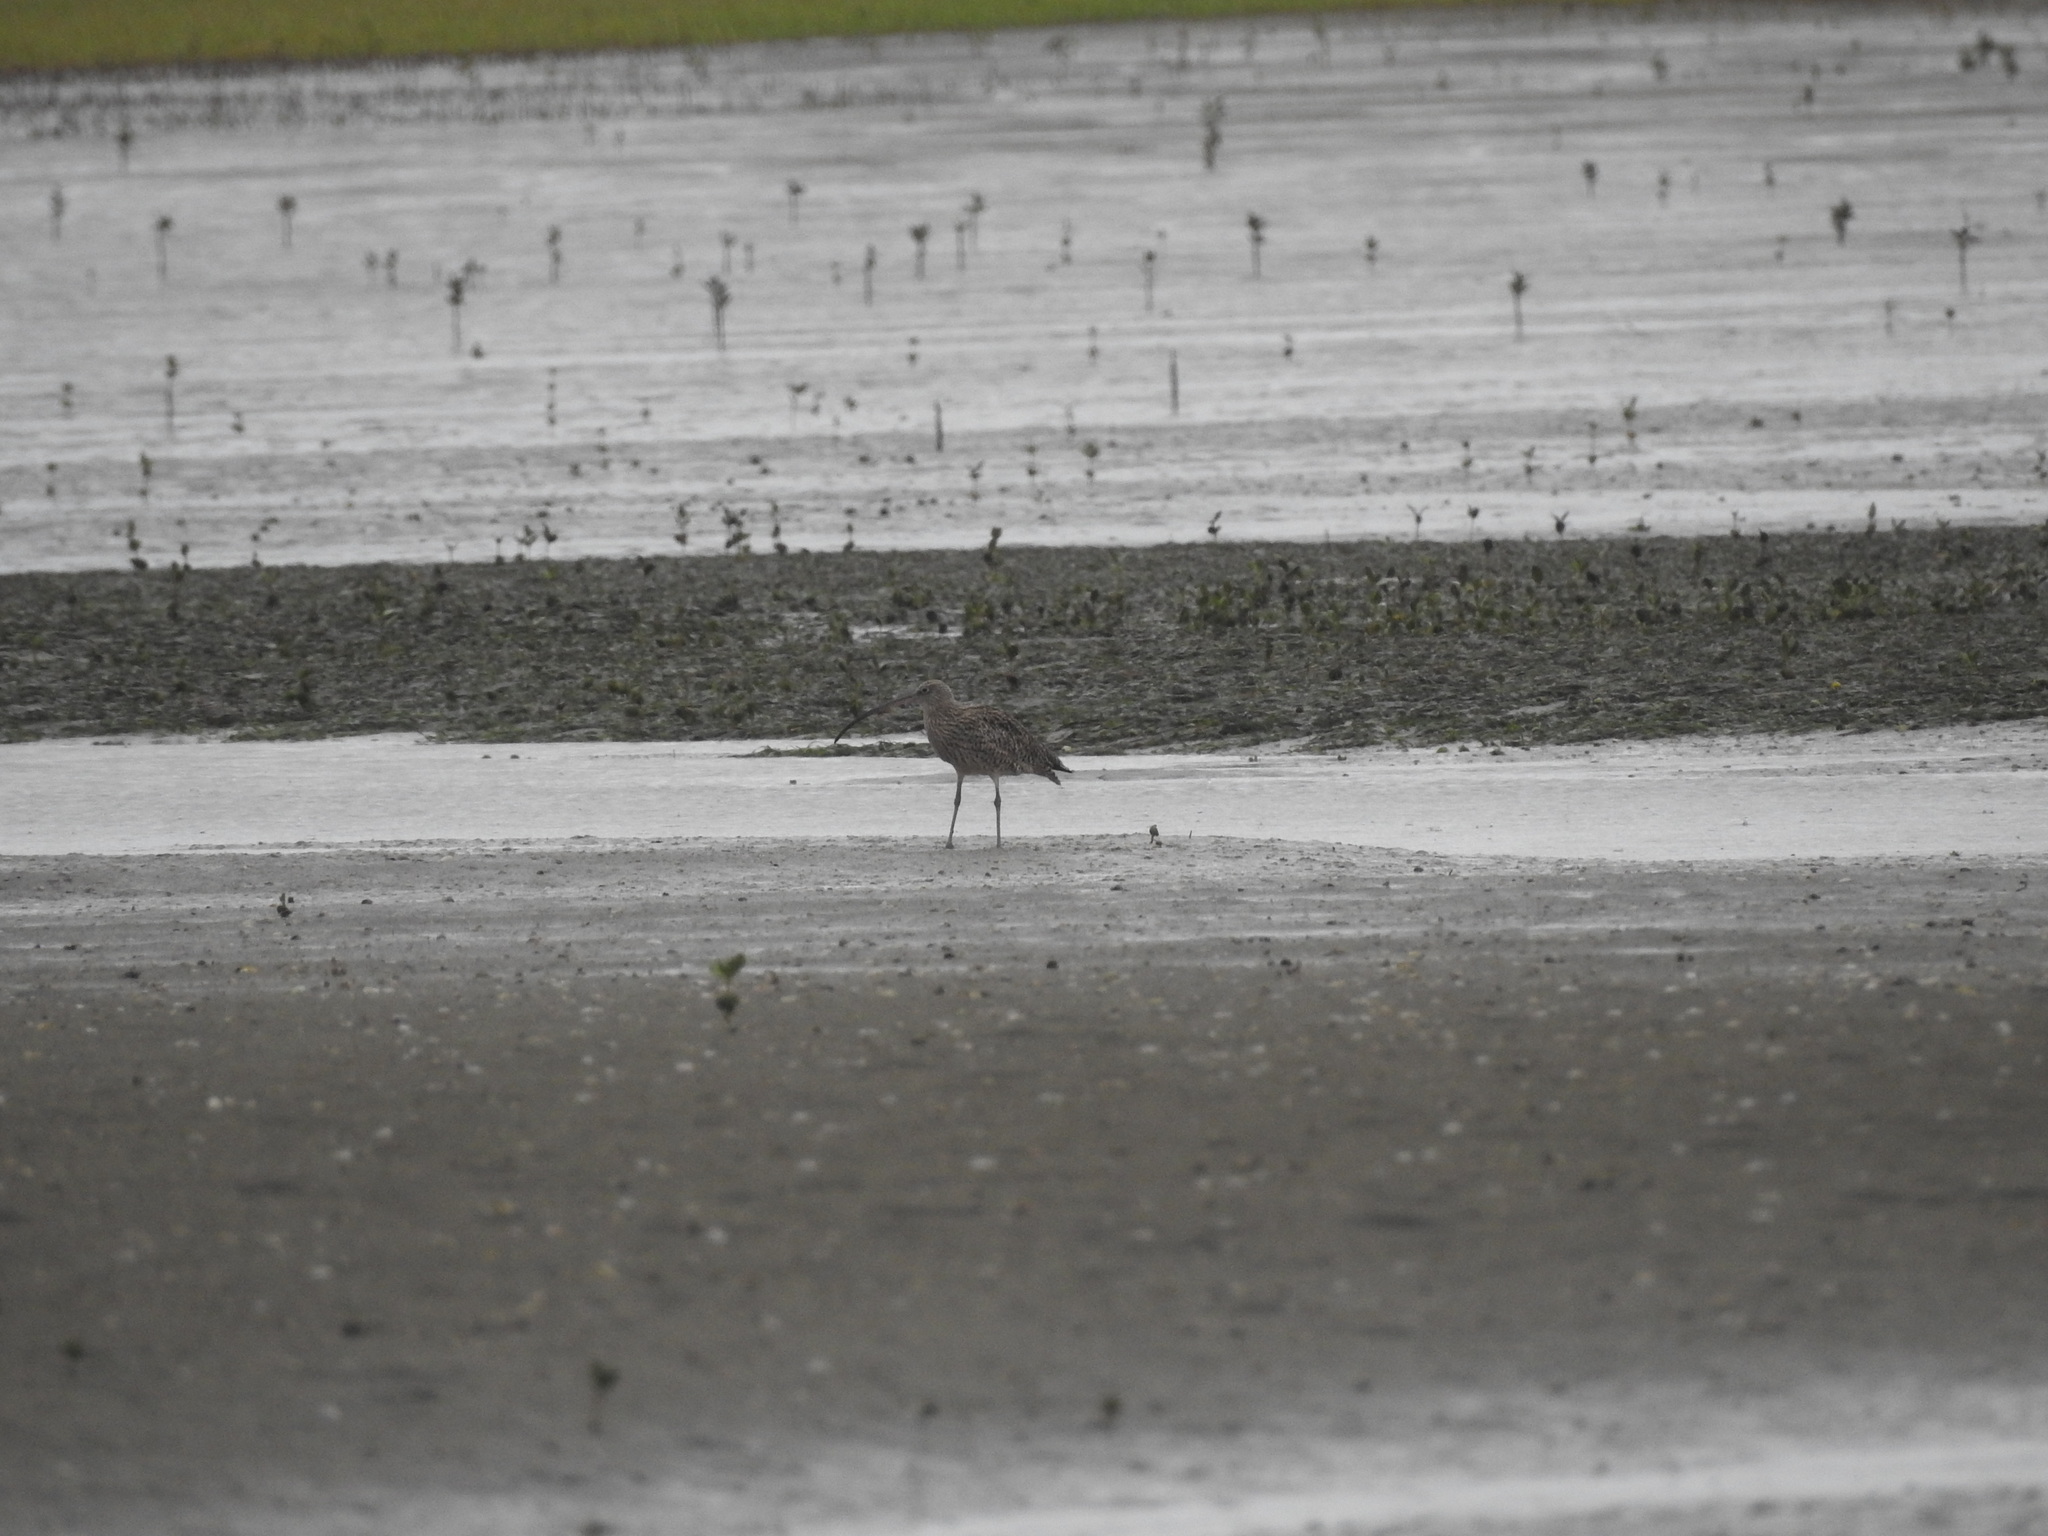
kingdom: Animalia
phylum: Chordata
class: Aves
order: Charadriiformes
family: Scolopacidae
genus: Numenius
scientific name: Numenius madagascariensis
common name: Far eastern curlew
